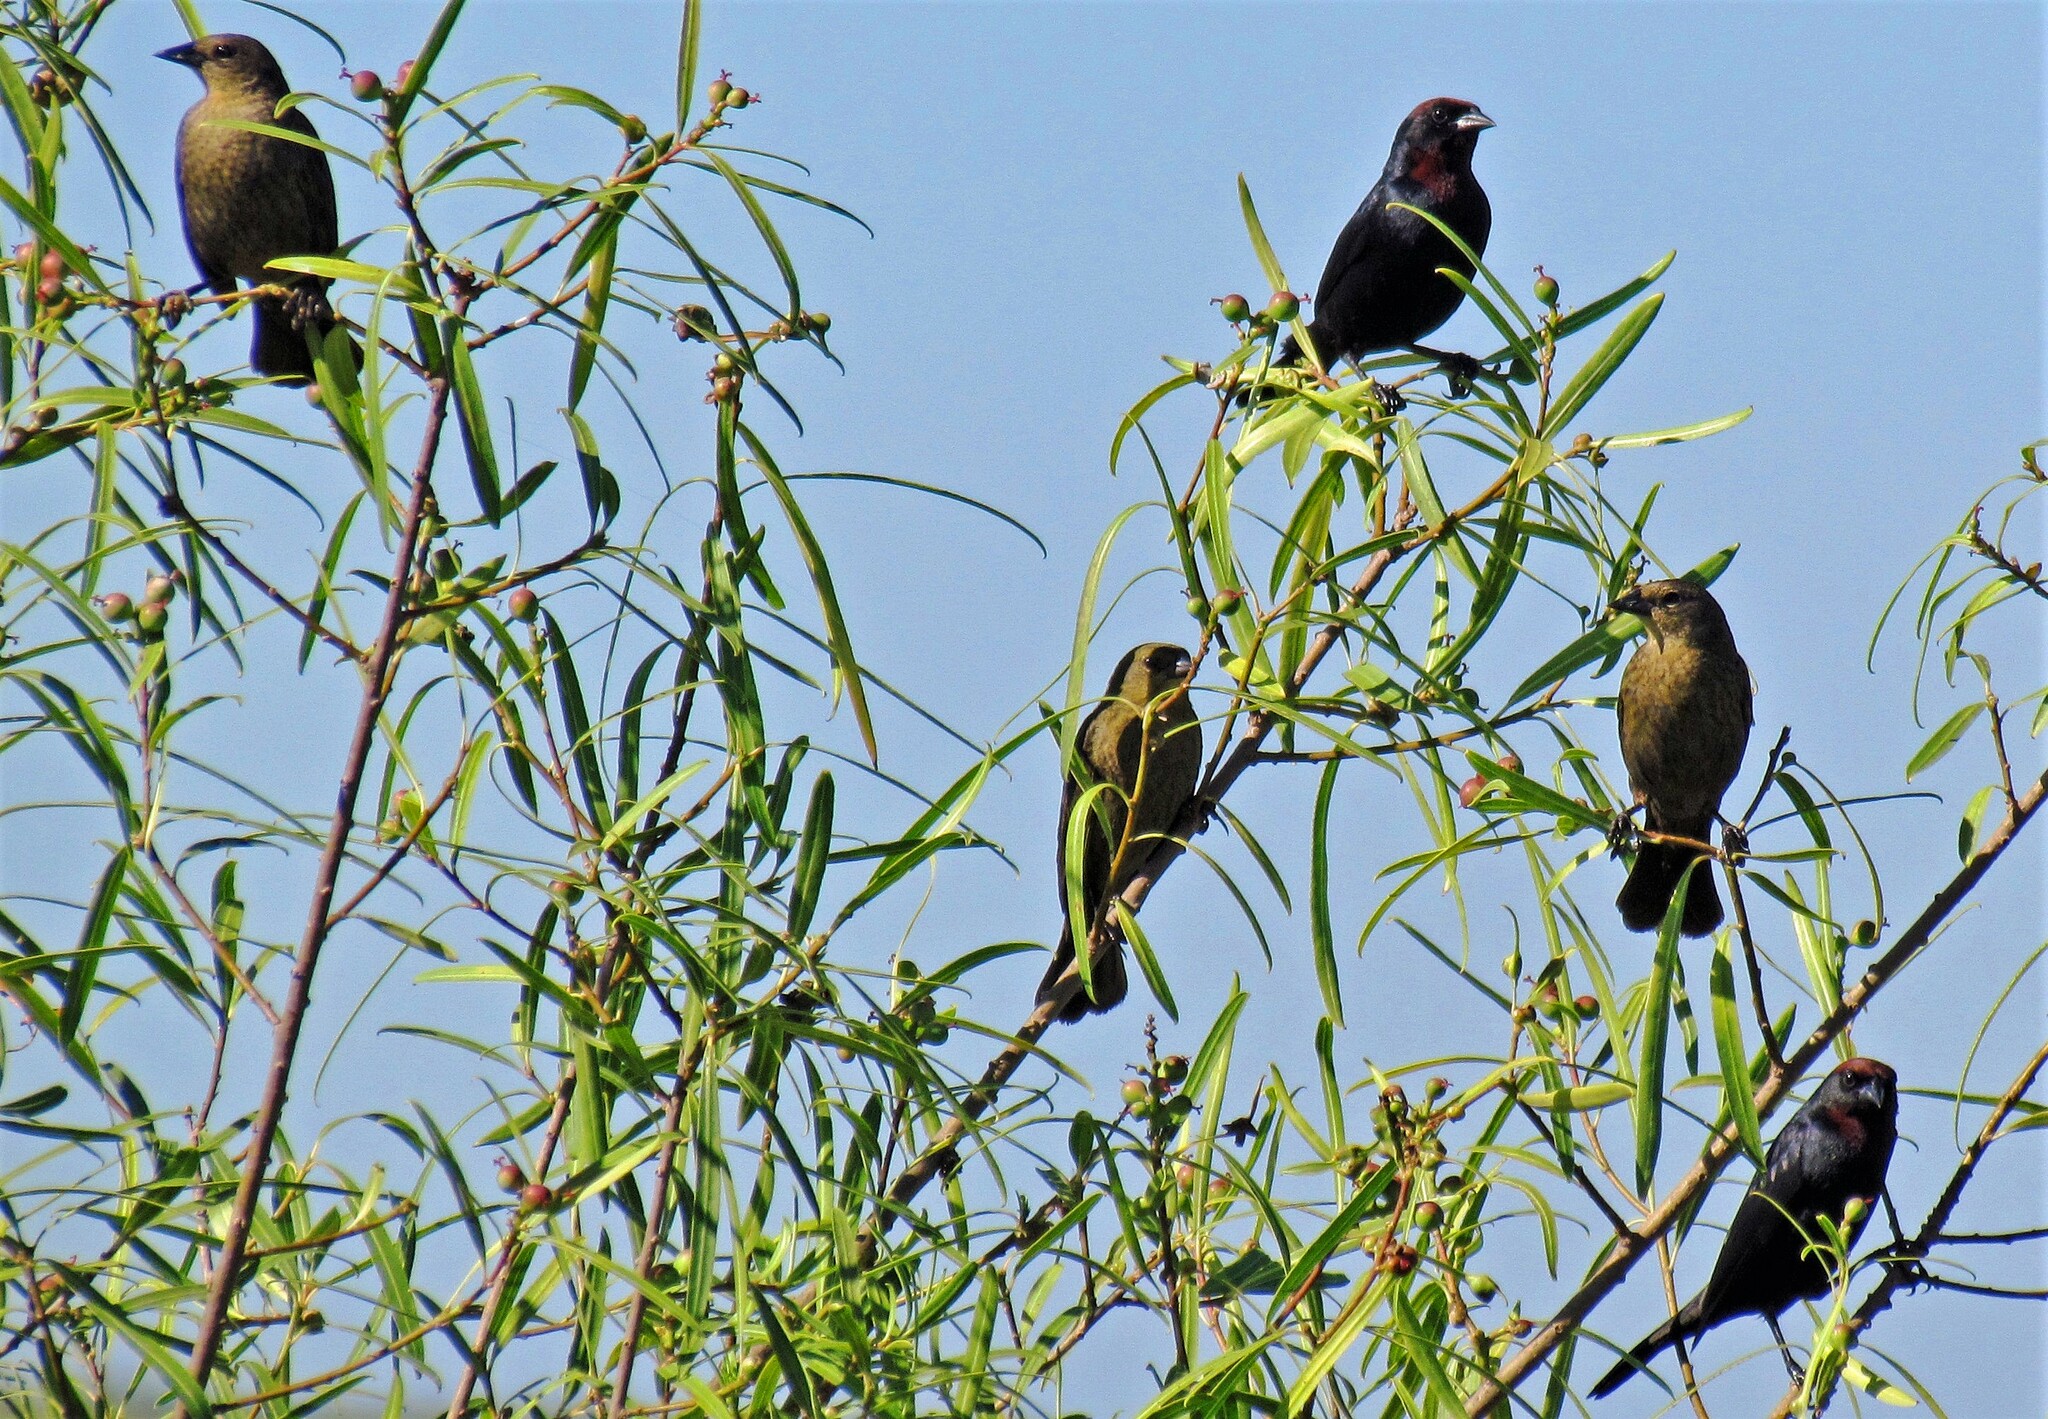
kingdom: Animalia
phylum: Chordata
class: Aves
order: Passeriformes
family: Icteridae
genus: Chrysomus
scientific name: Chrysomus ruficapillus
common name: Chestnut-capped blackbird
